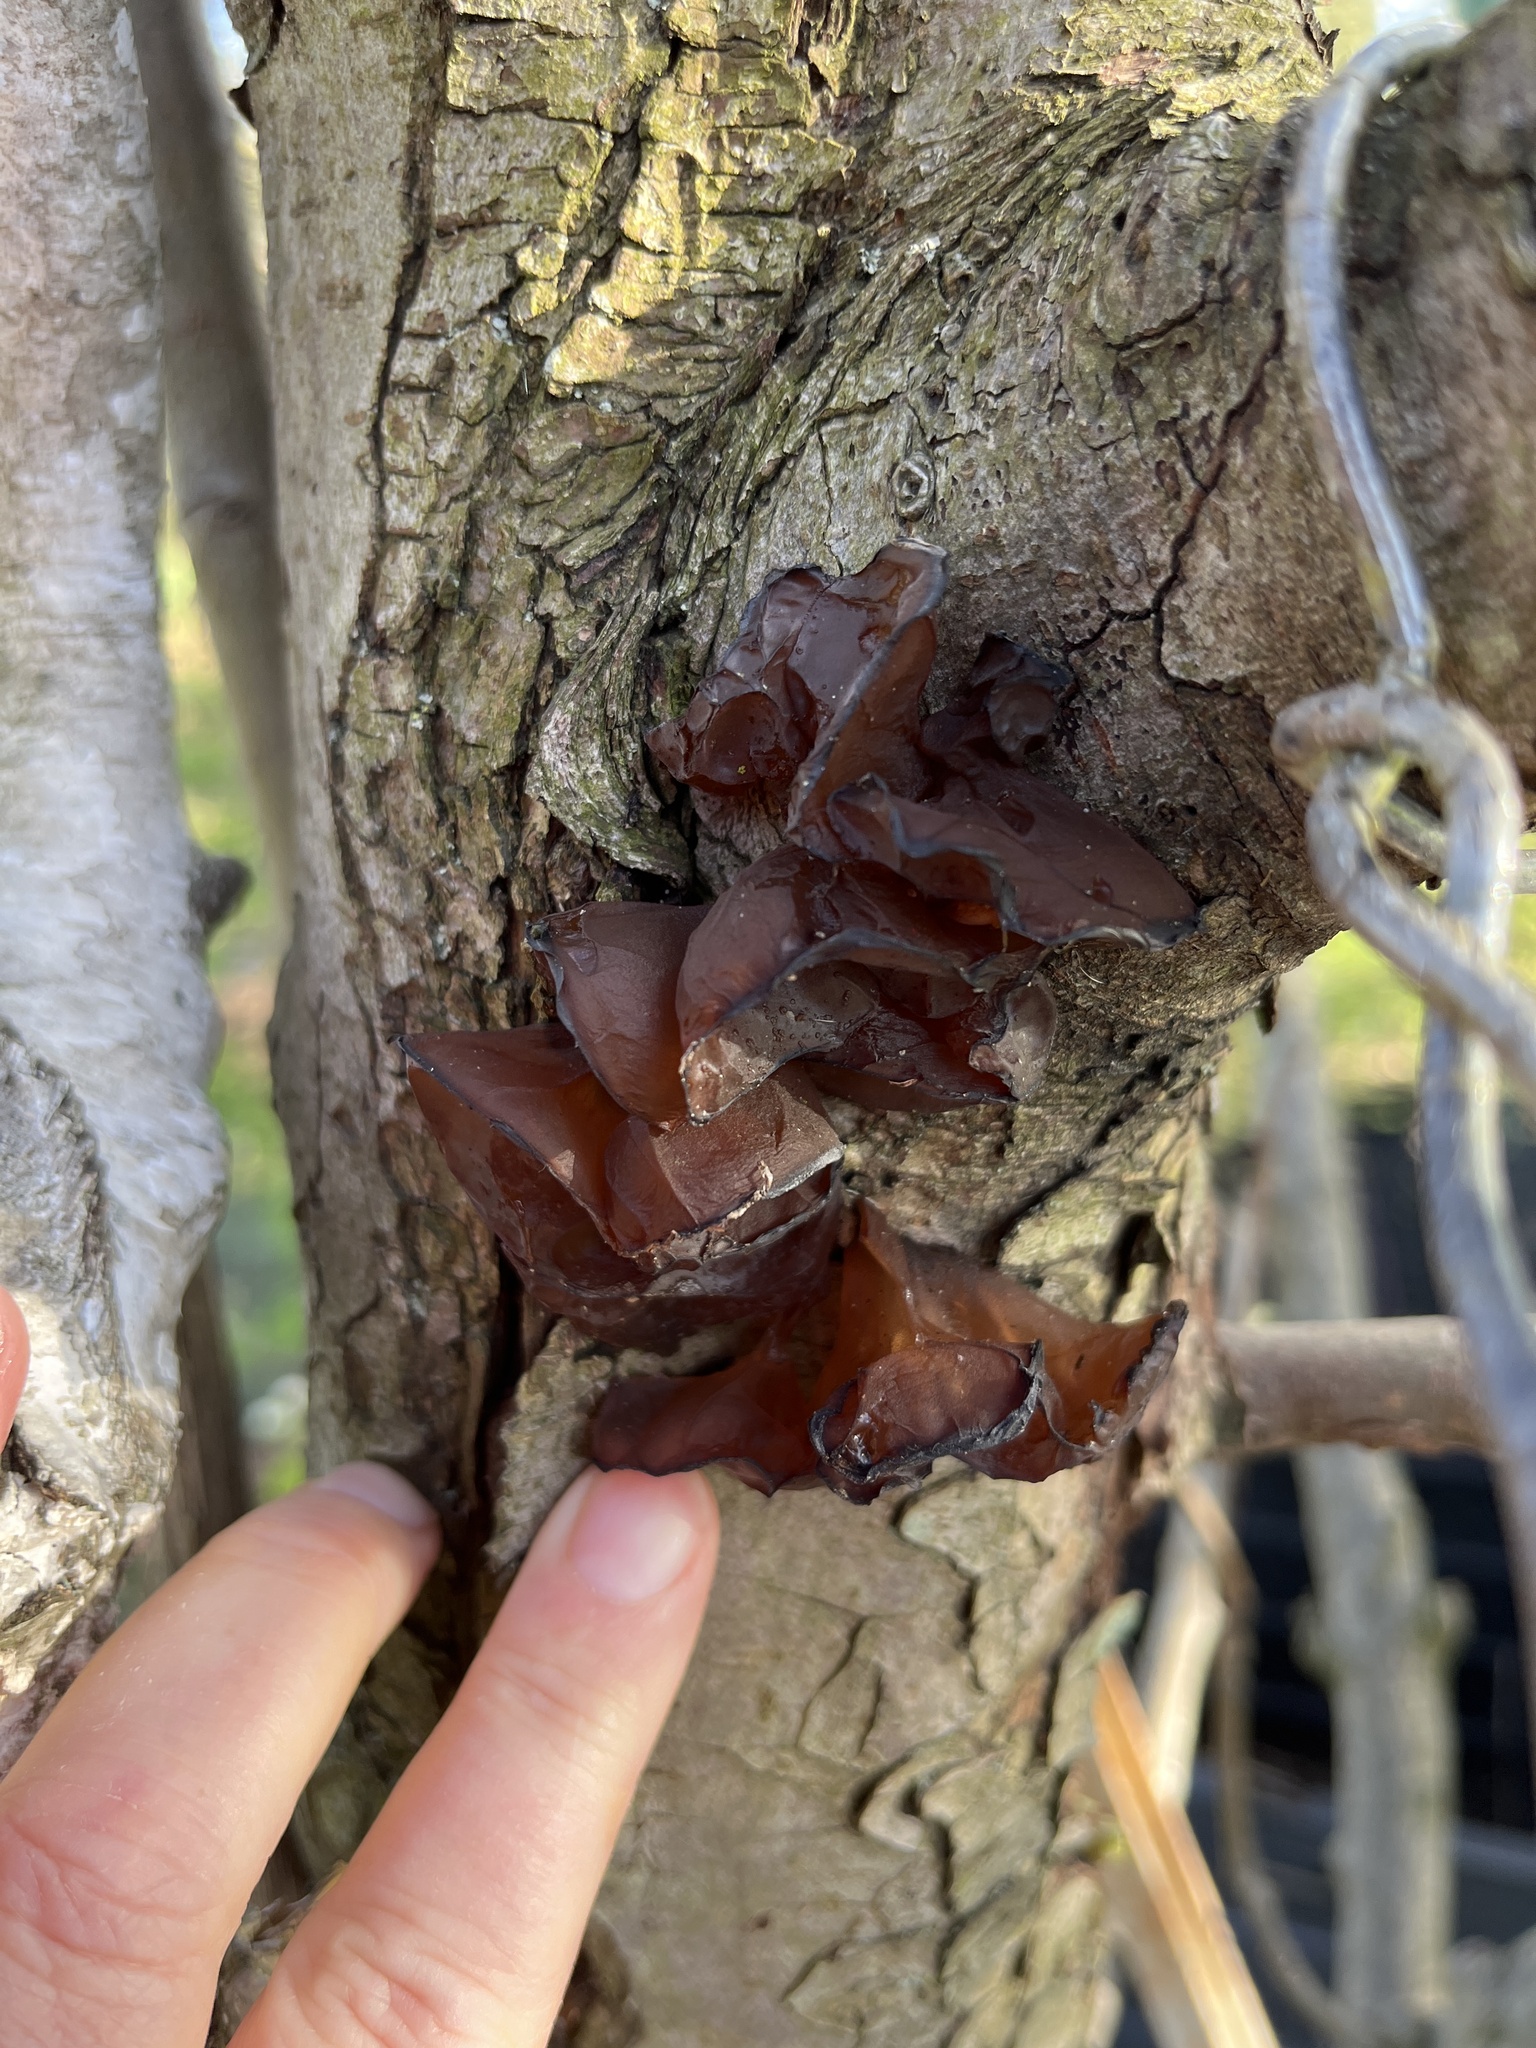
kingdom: Fungi
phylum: Basidiomycota
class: Agaricomycetes
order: Auriculariales
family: Auriculariaceae
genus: Exidia
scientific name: Exidia
